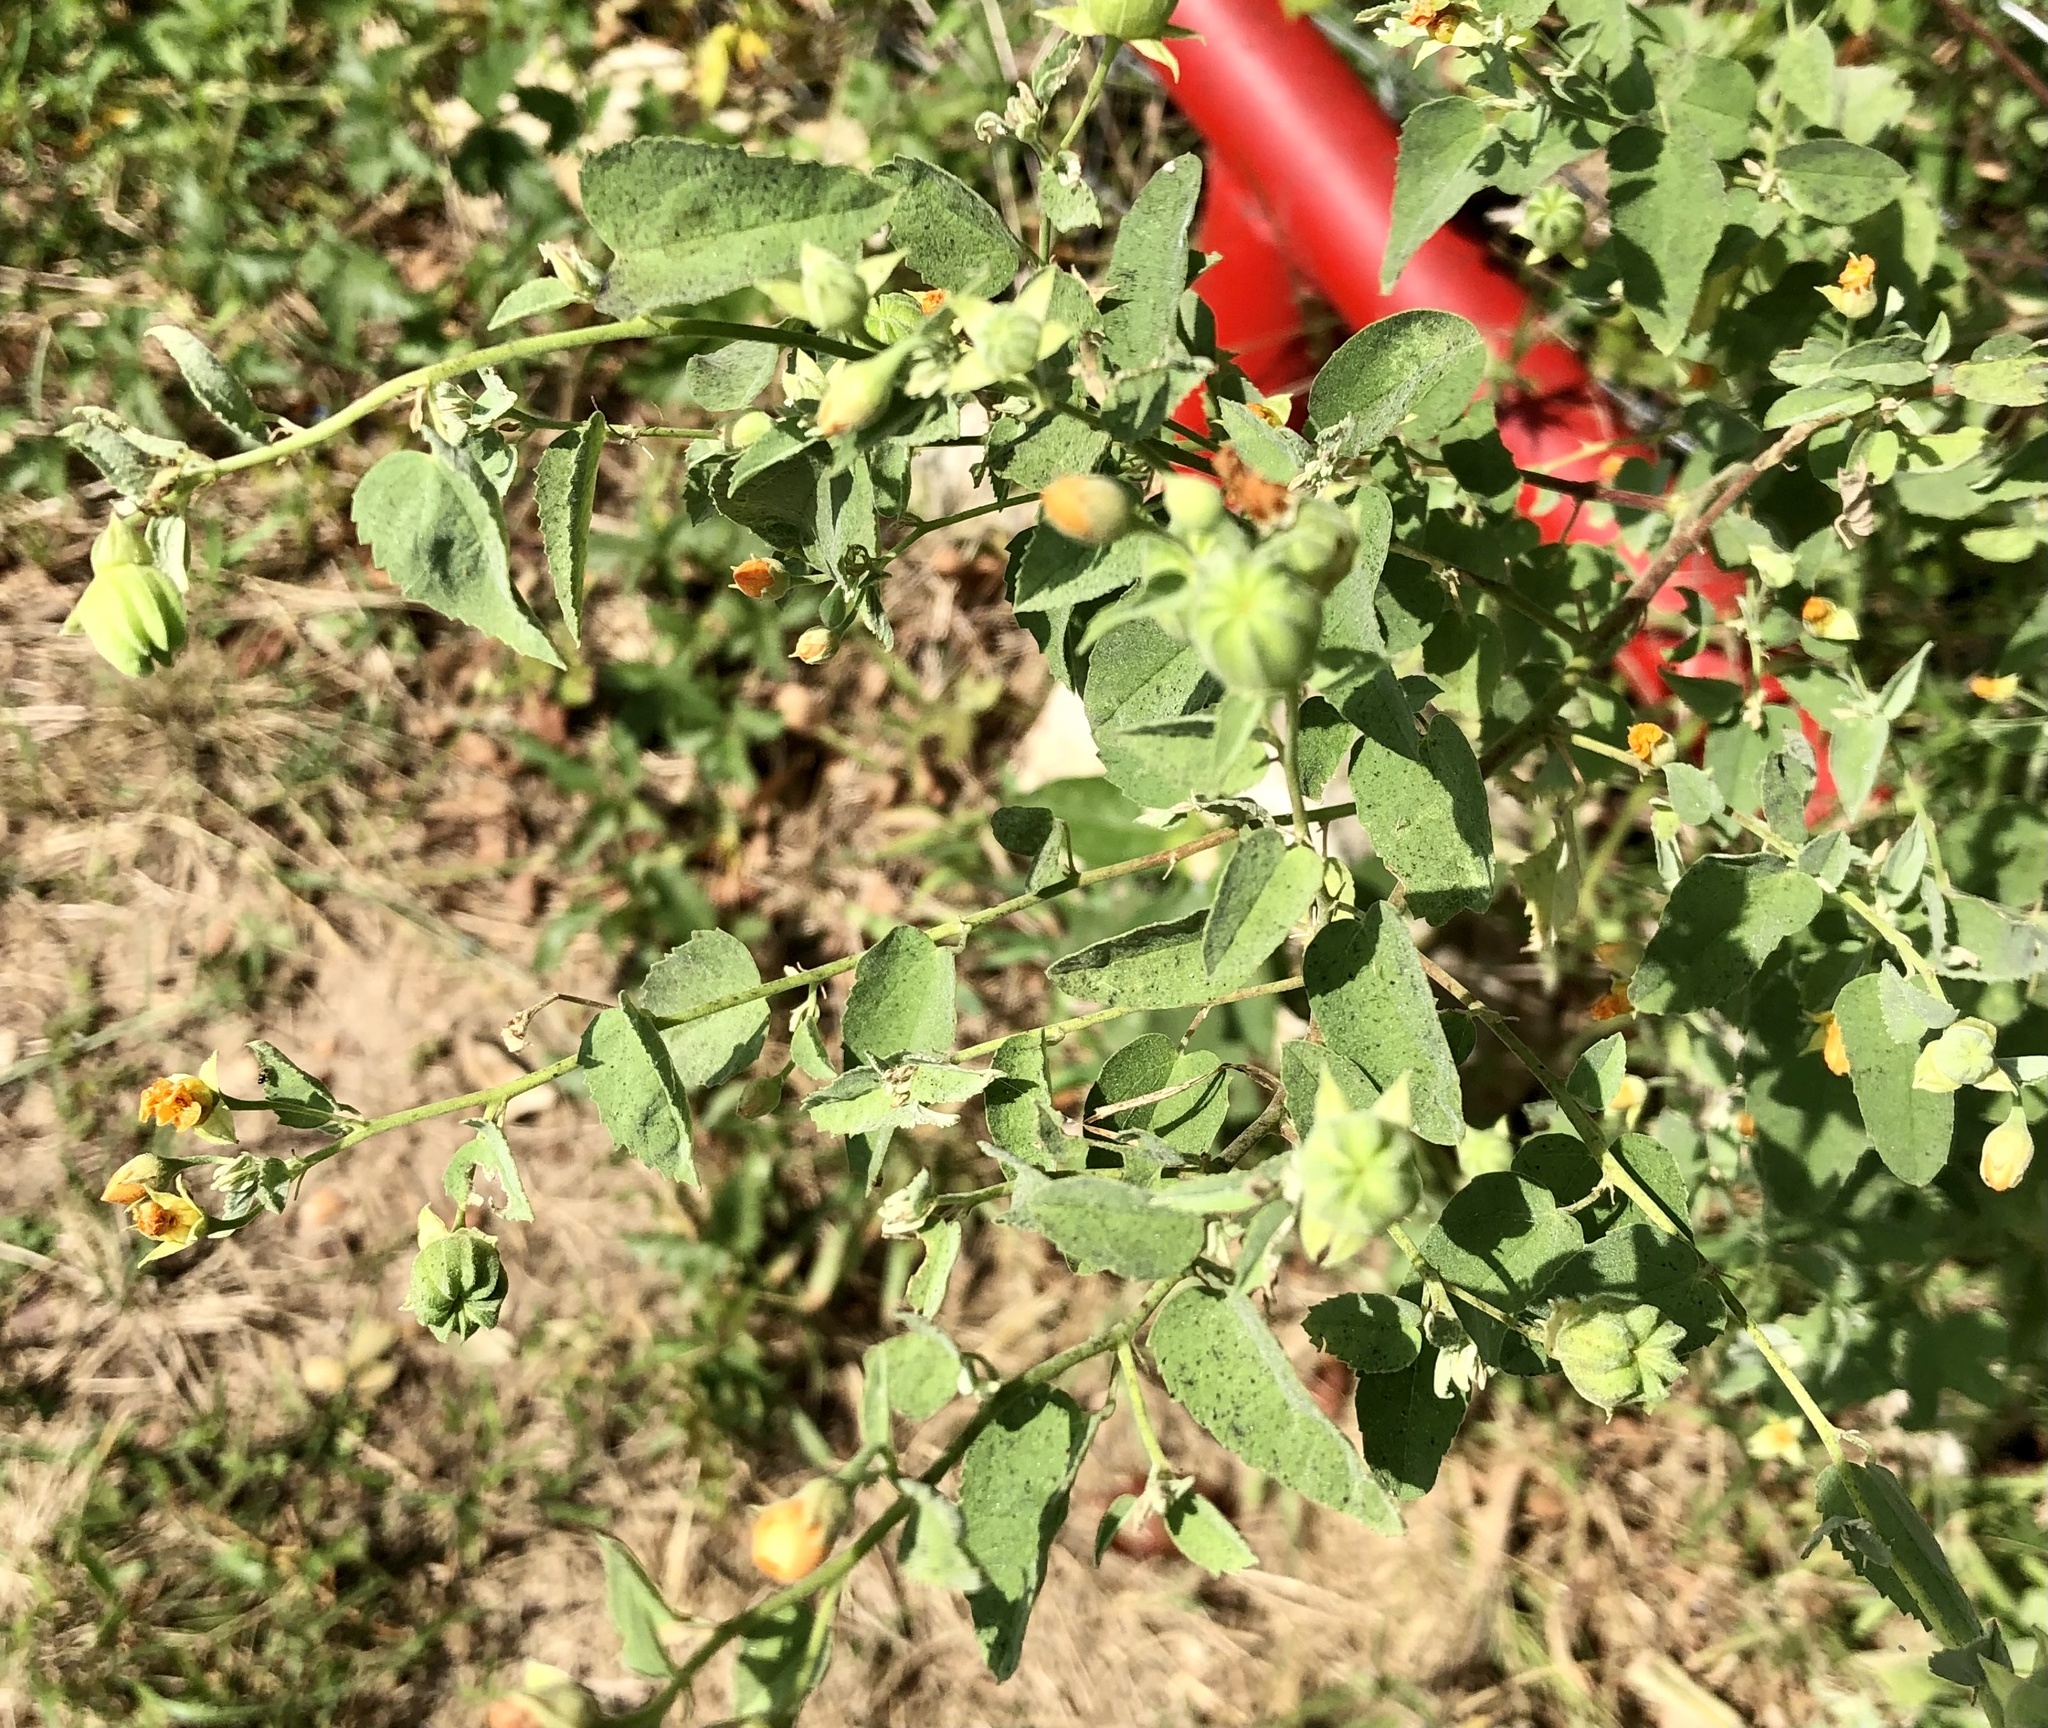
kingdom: Plantae
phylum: Tracheophyta
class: Magnoliopsida
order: Malvales
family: Malvaceae
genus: Abutilon
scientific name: Abutilon fruticosum
